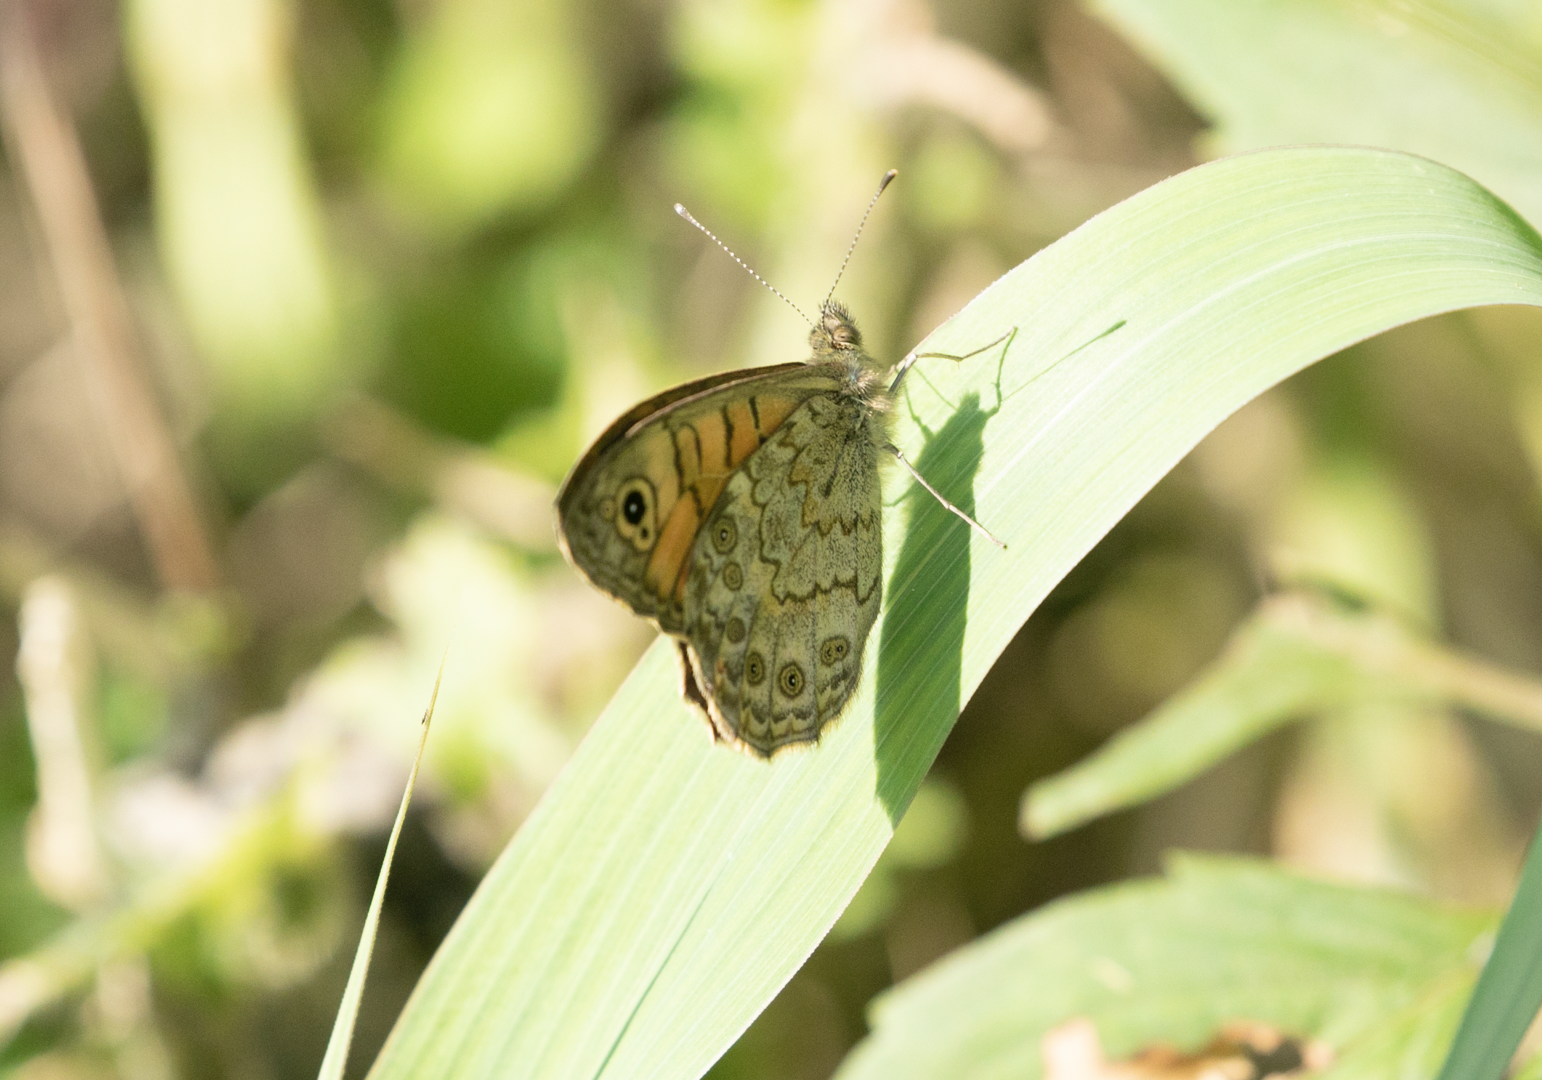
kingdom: Animalia
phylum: Arthropoda
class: Insecta
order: Lepidoptera
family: Nymphalidae
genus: Pararge
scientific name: Pararge Lasiommata megera
